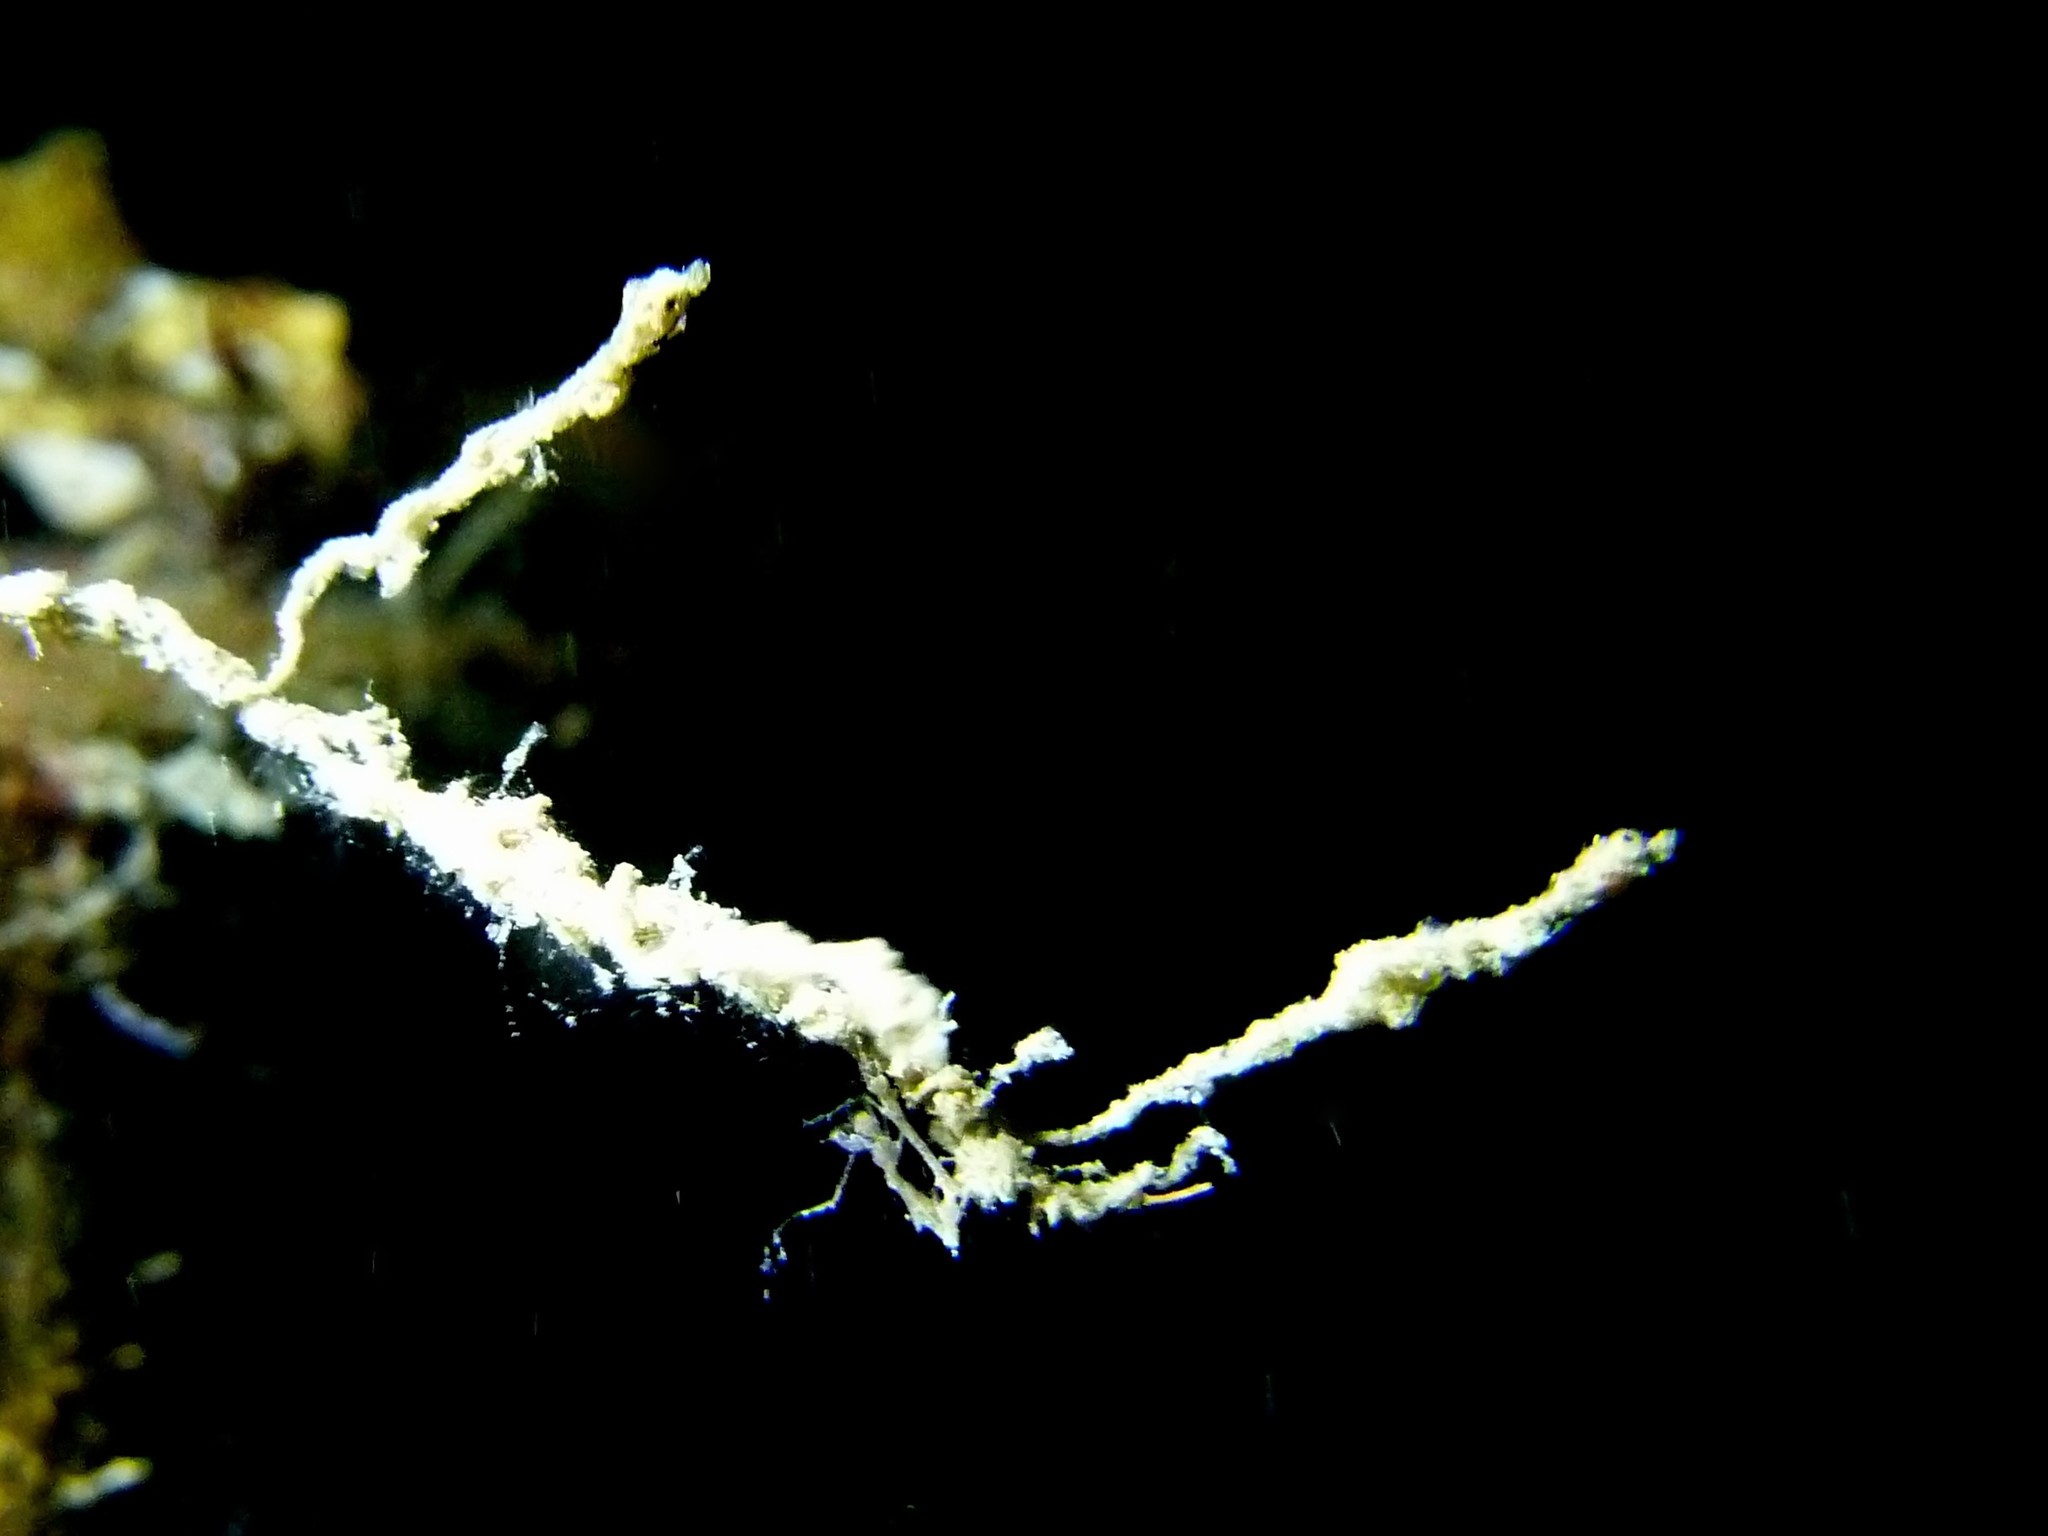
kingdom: Animalia
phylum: Chordata
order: Syngnathiformes
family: Syngnathidae
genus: Kyonemichthys
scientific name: Kyonemichthys rumengani
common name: Thread pipefish
